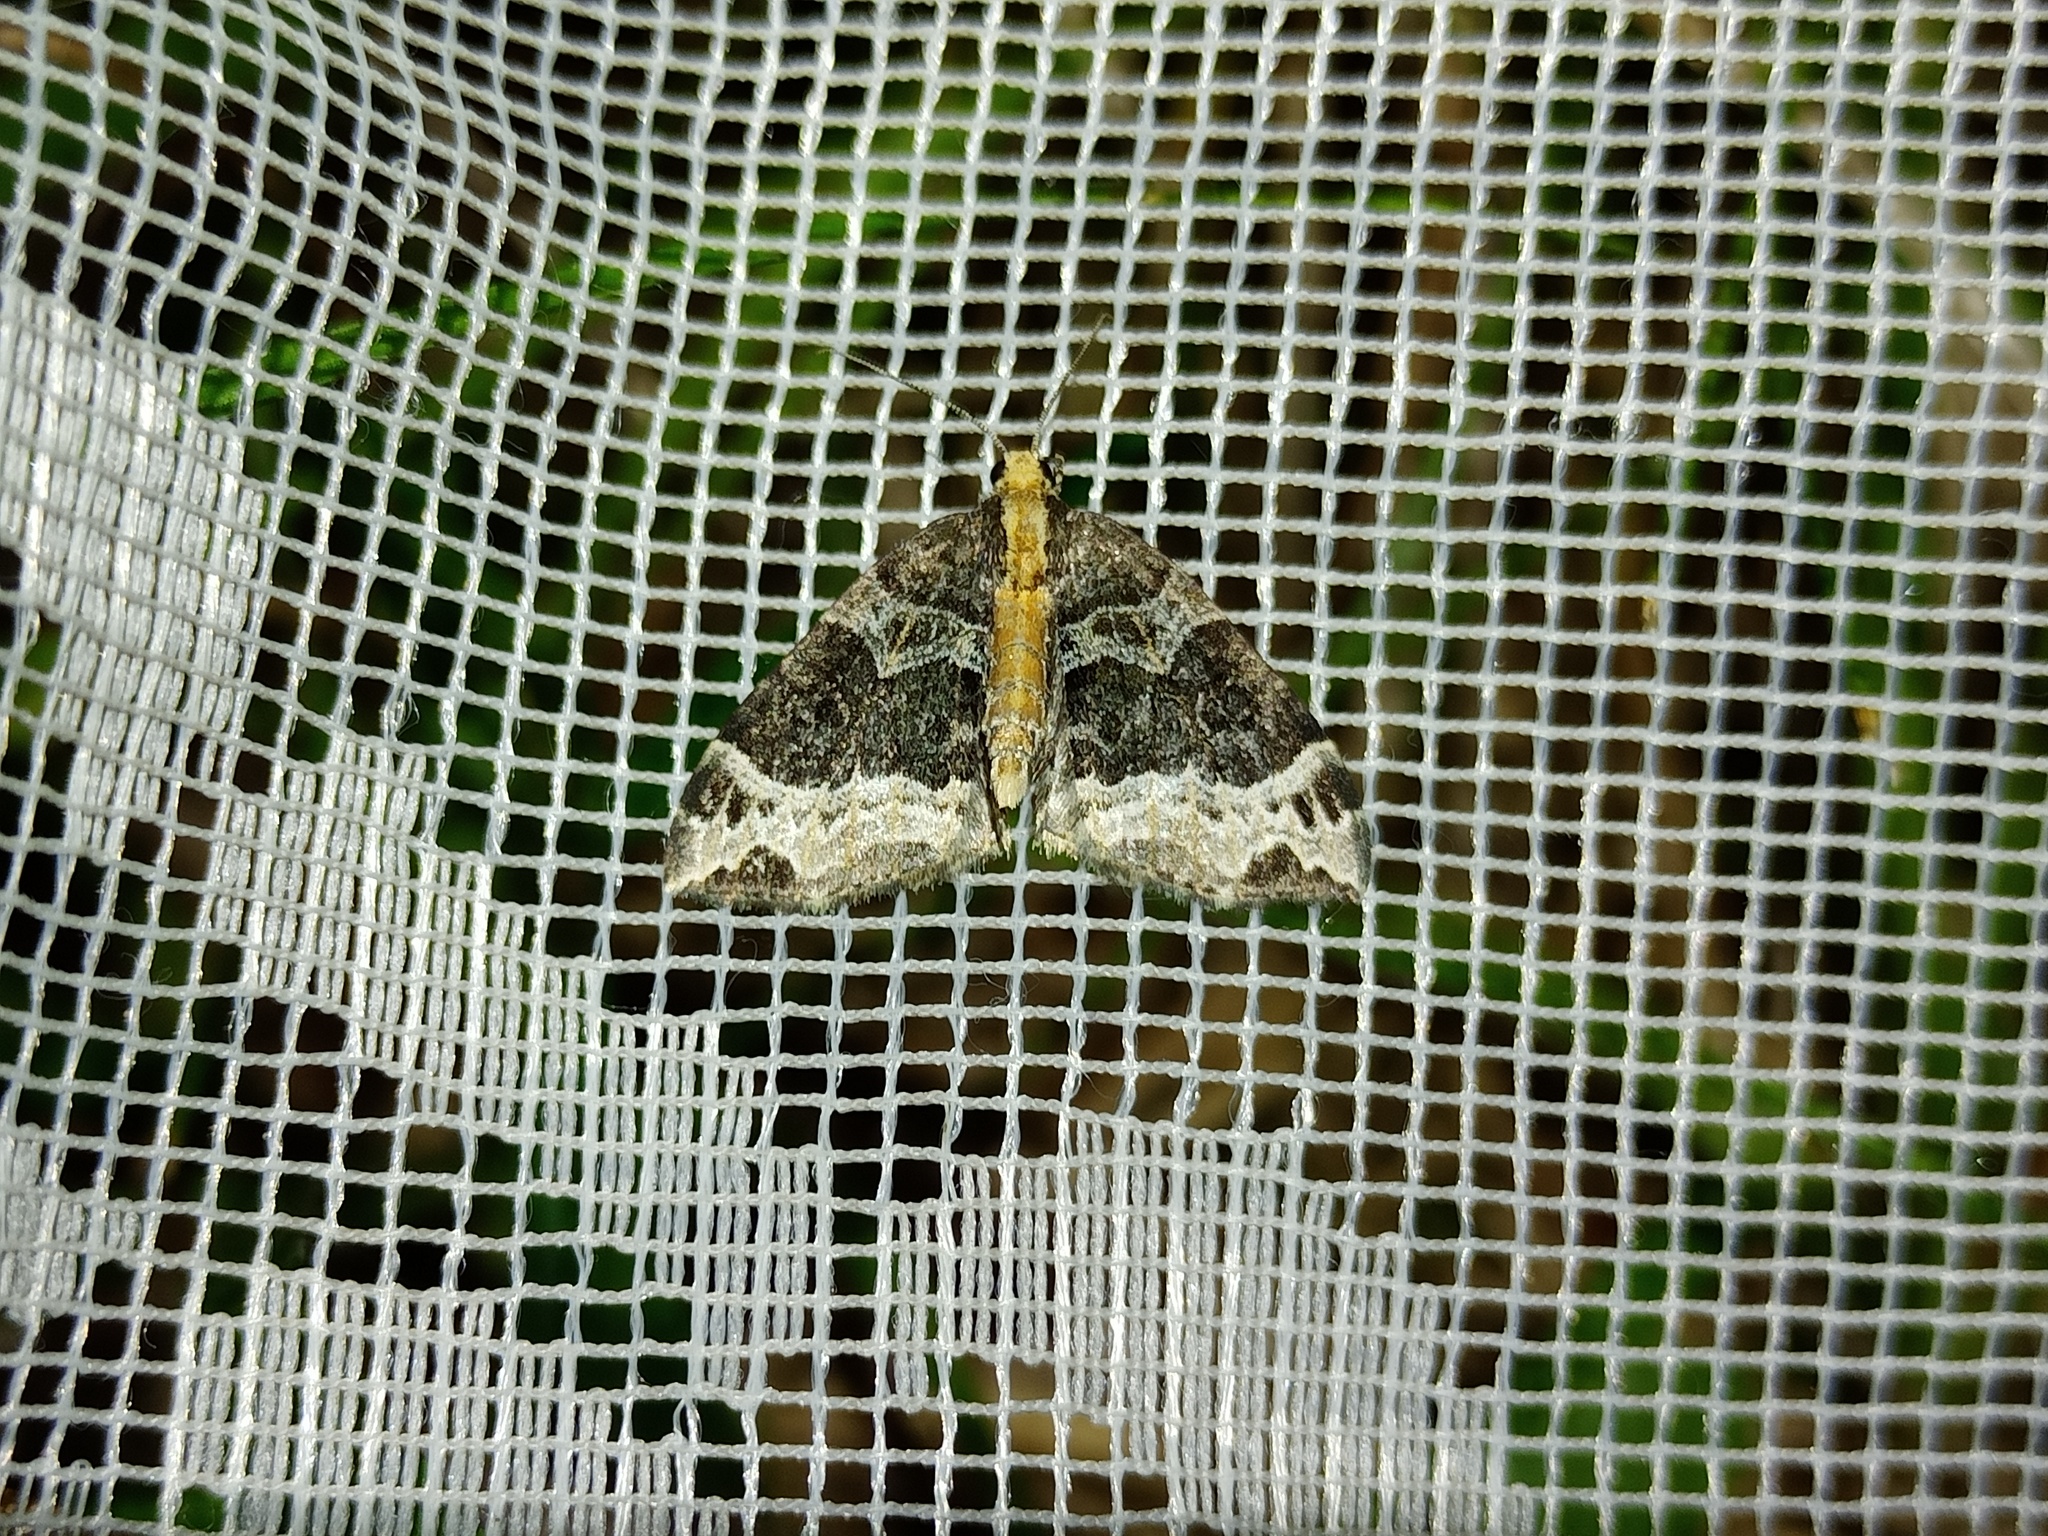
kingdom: Animalia
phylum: Arthropoda
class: Insecta
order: Lepidoptera
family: Geometridae
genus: Ecliptopera
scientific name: Ecliptopera capitata
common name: Yellow-headed phoenix
